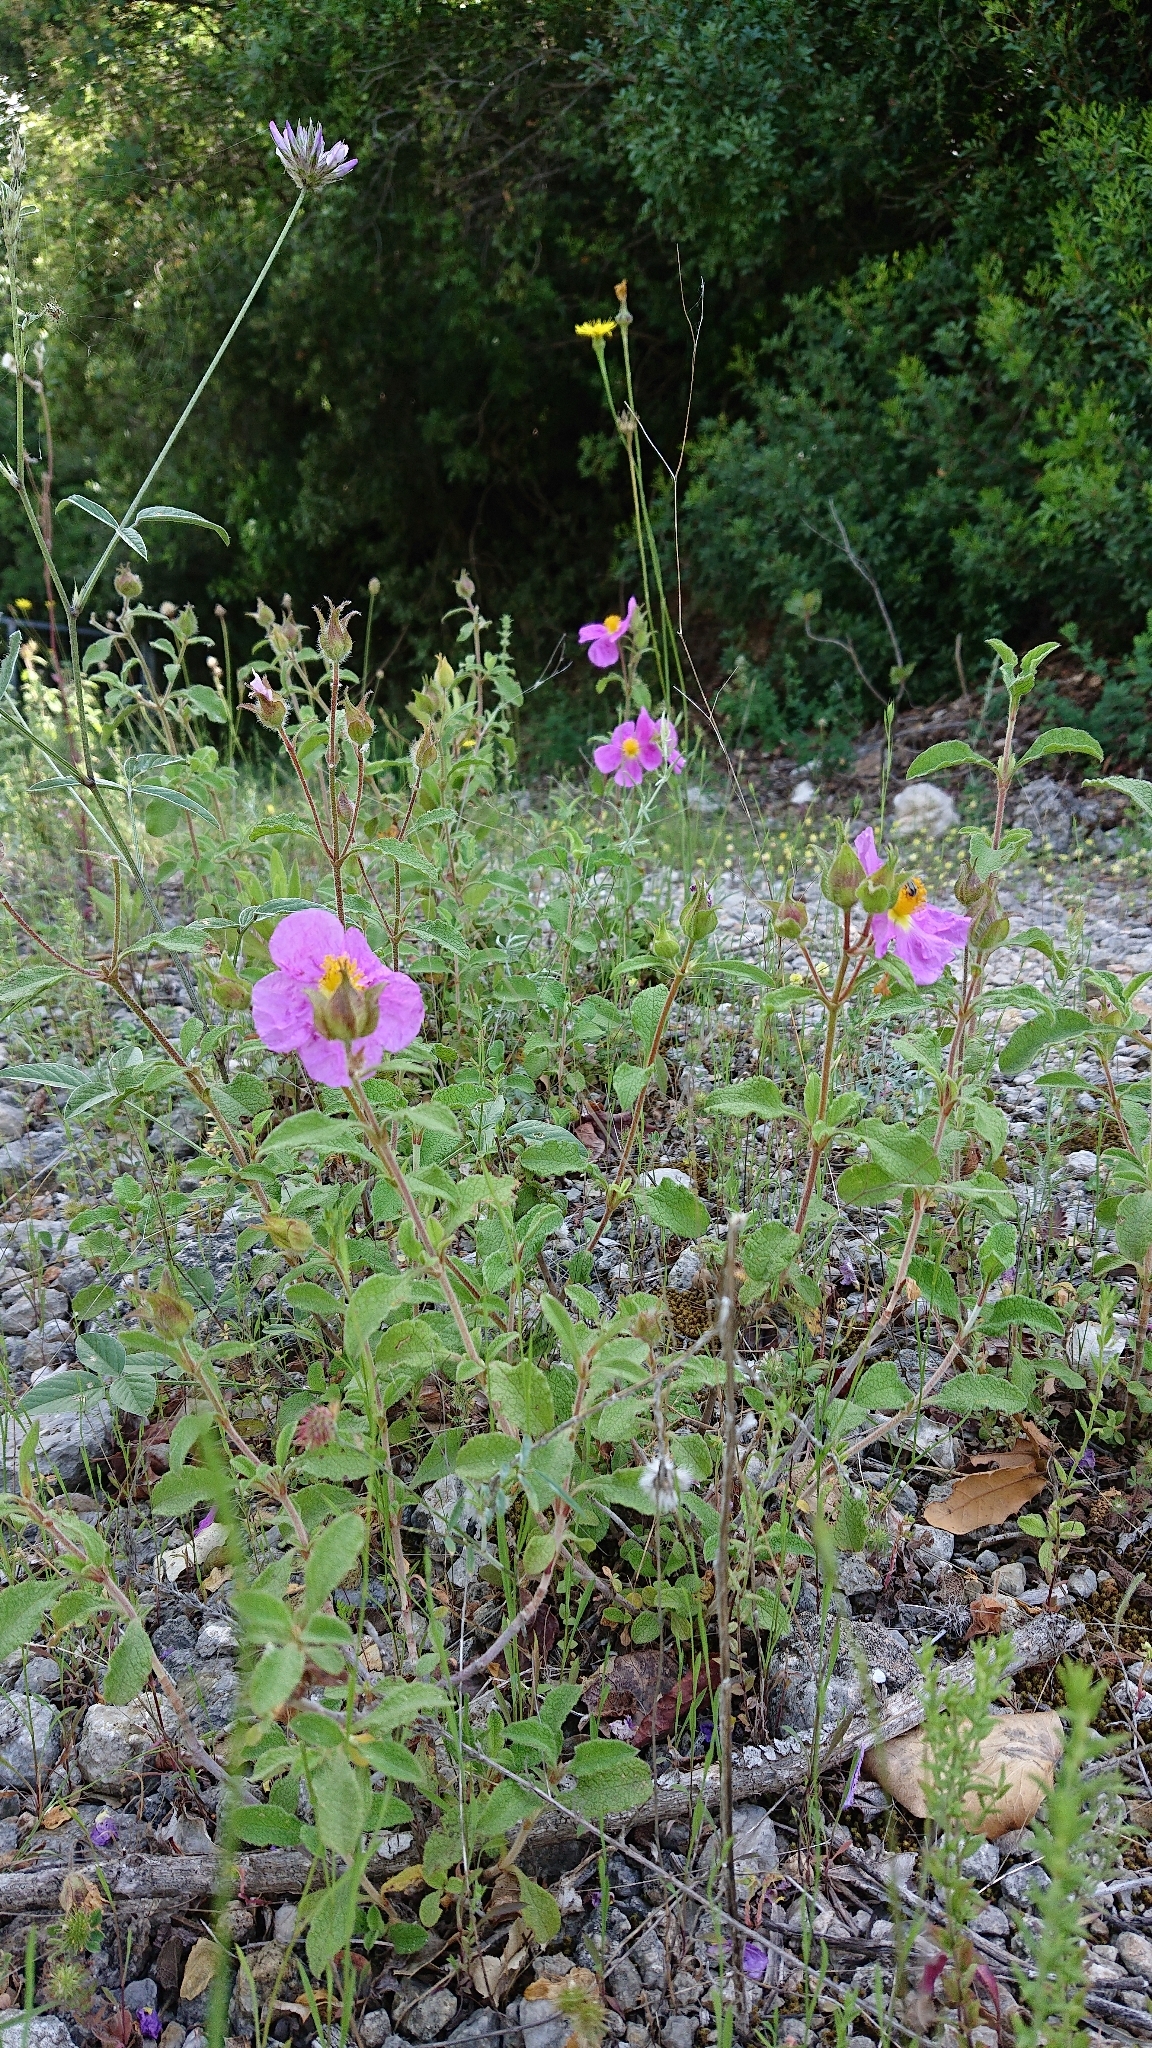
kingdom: Plantae
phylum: Tracheophyta
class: Magnoliopsida
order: Malvales
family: Cistaceae
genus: Cistus
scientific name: Cistus creticus
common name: Cretan rockrose
